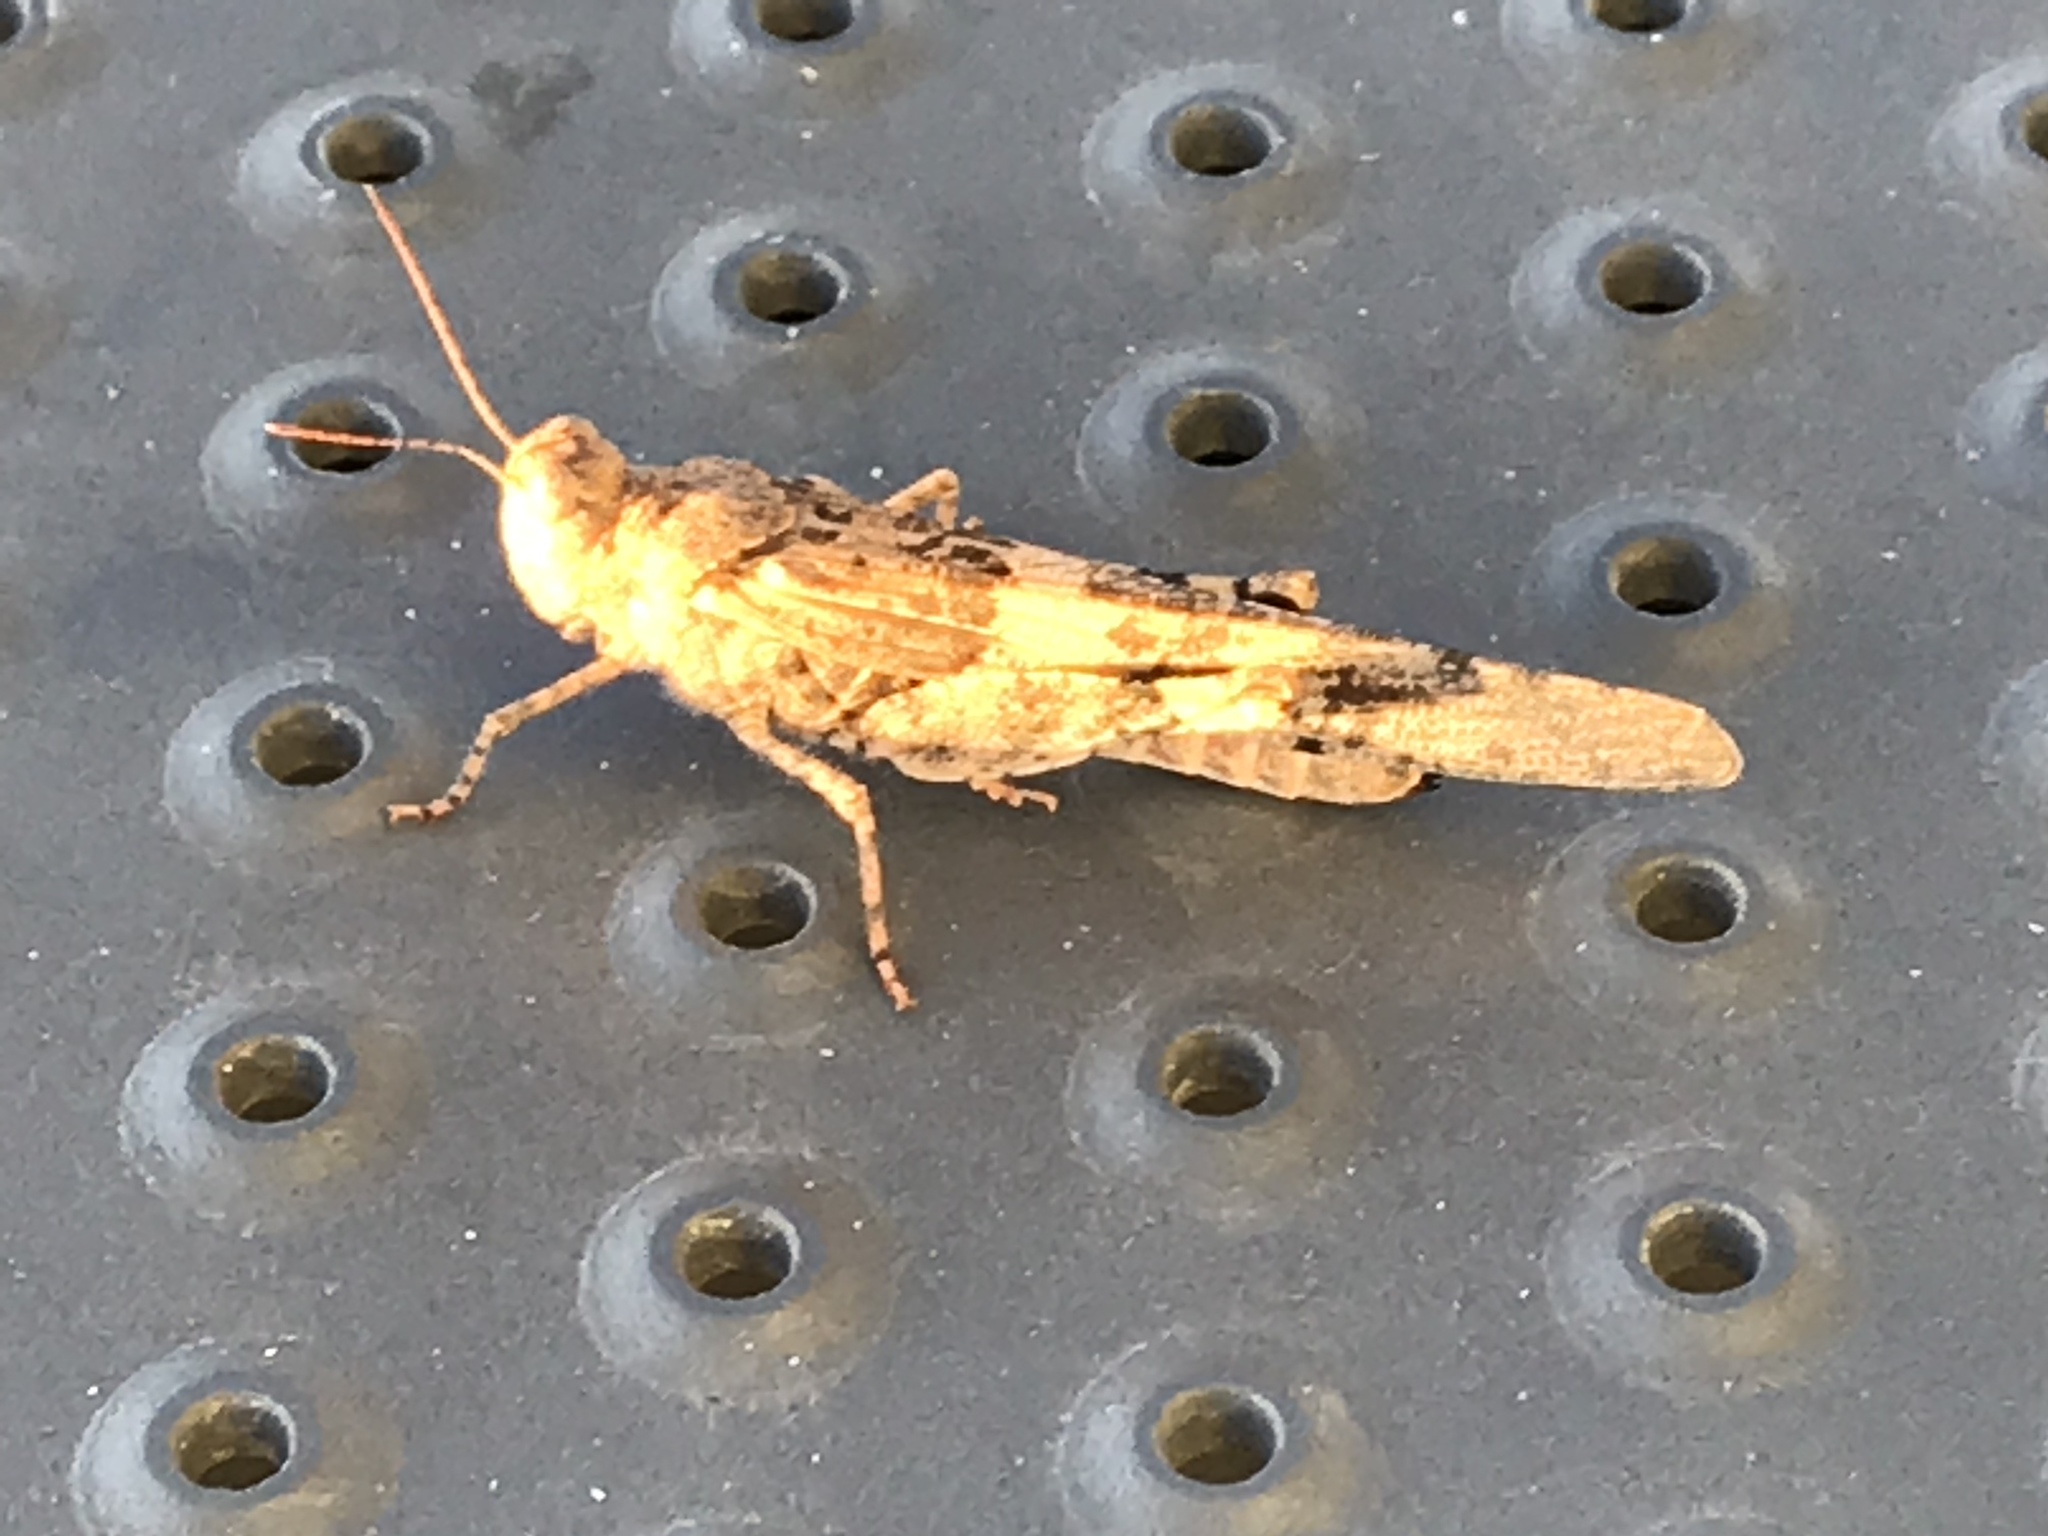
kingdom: Animalia
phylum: Arthropoda
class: Insecta
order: Orthoptera
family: Acrididae
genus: Trimerotropis
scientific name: Trimerotropis pallidipennis
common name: Pallid-winged grasshopper
